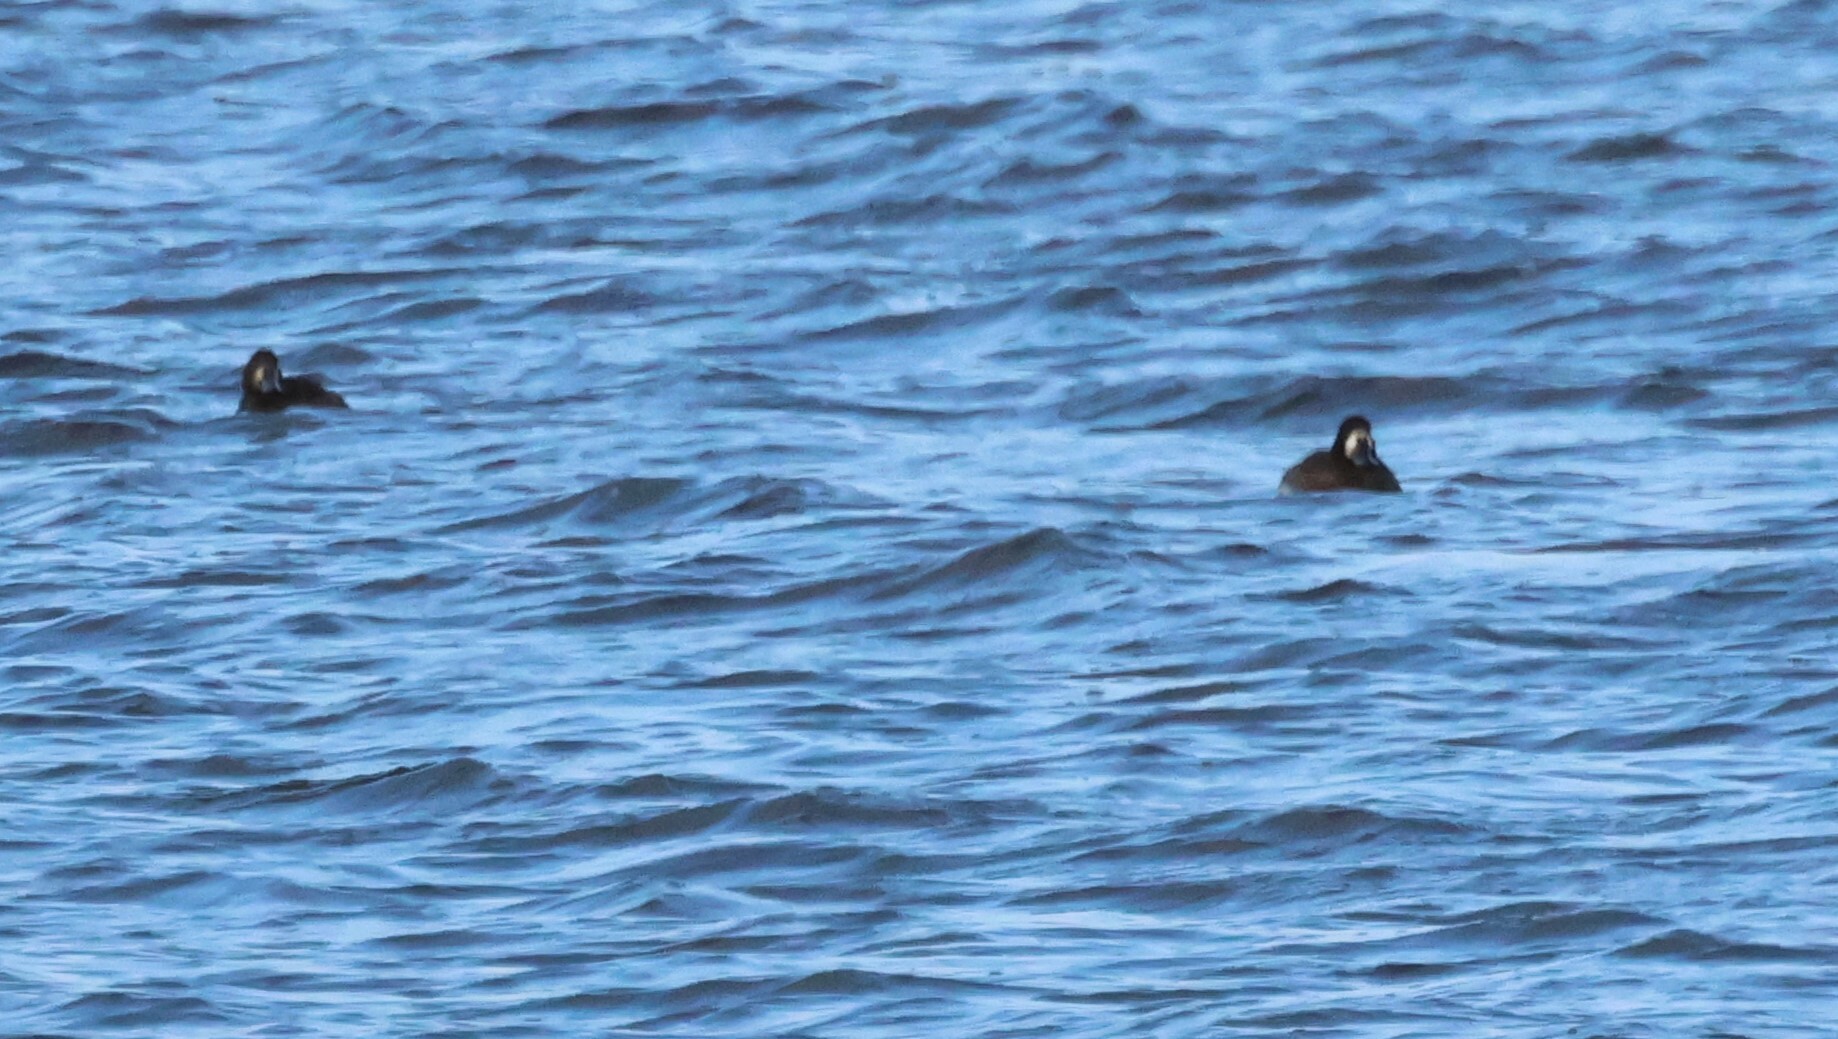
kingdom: Animalia
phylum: Chordata
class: Aves
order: Anseriformes
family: Anatidae
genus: Aythya
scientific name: Aythya marila
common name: Greater scaup
